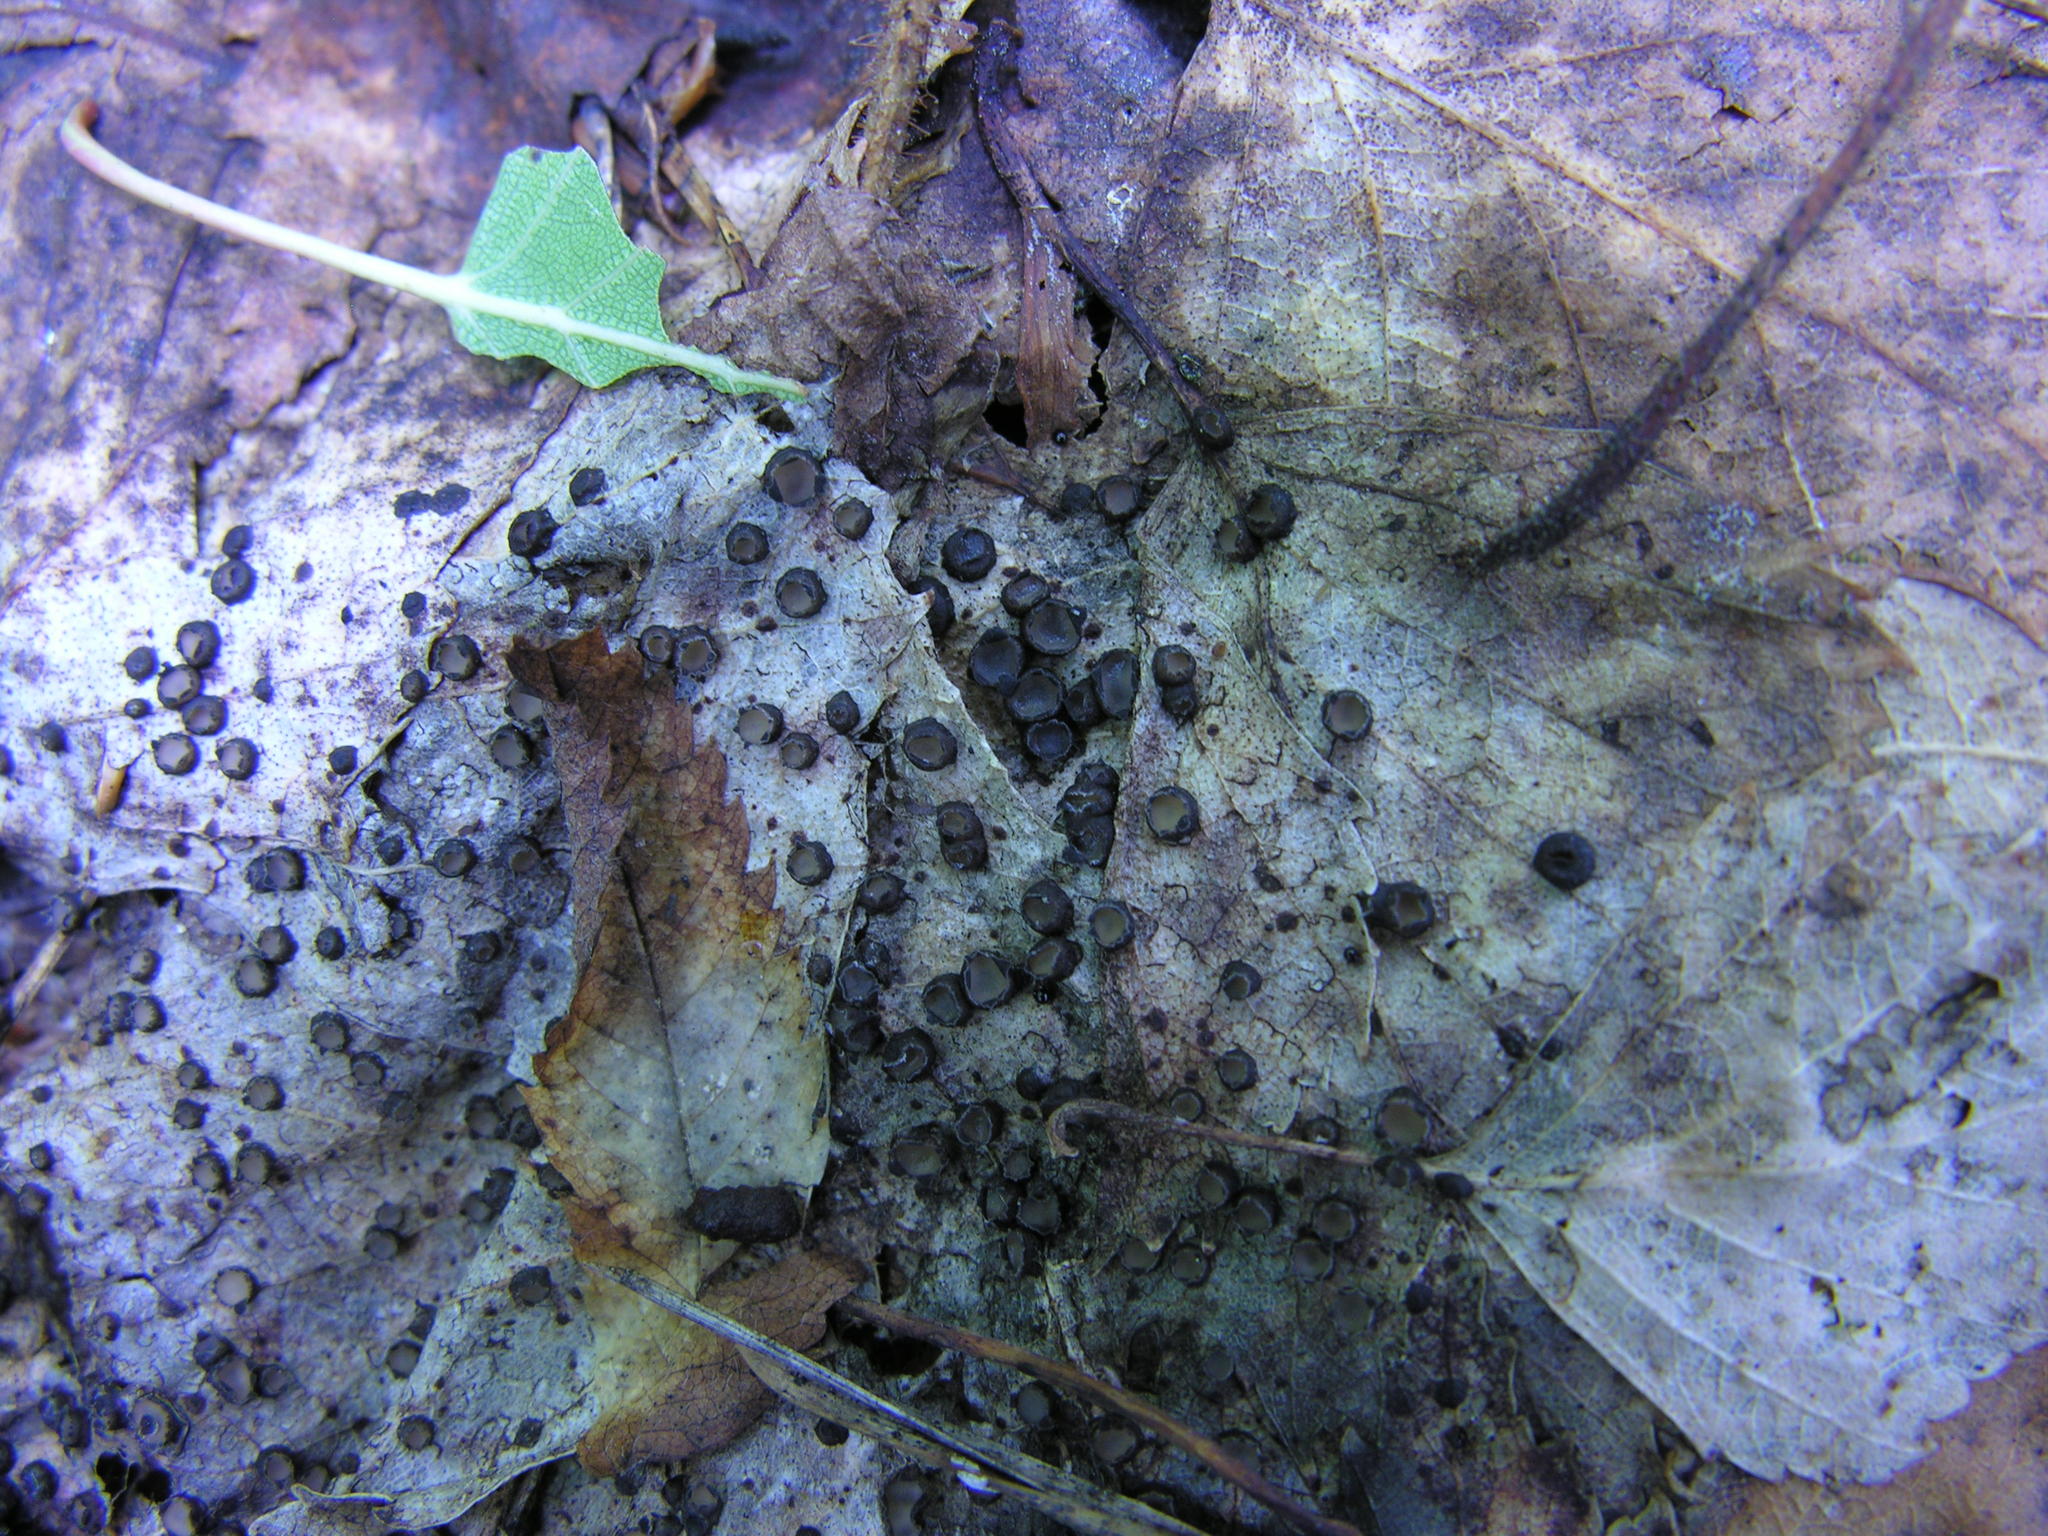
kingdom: Fungi
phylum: Ascomycota
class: Leotiomycetes
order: Rhytismatales
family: Rhytismataceae
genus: Coccomyces
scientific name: Coccomyces tumidus
